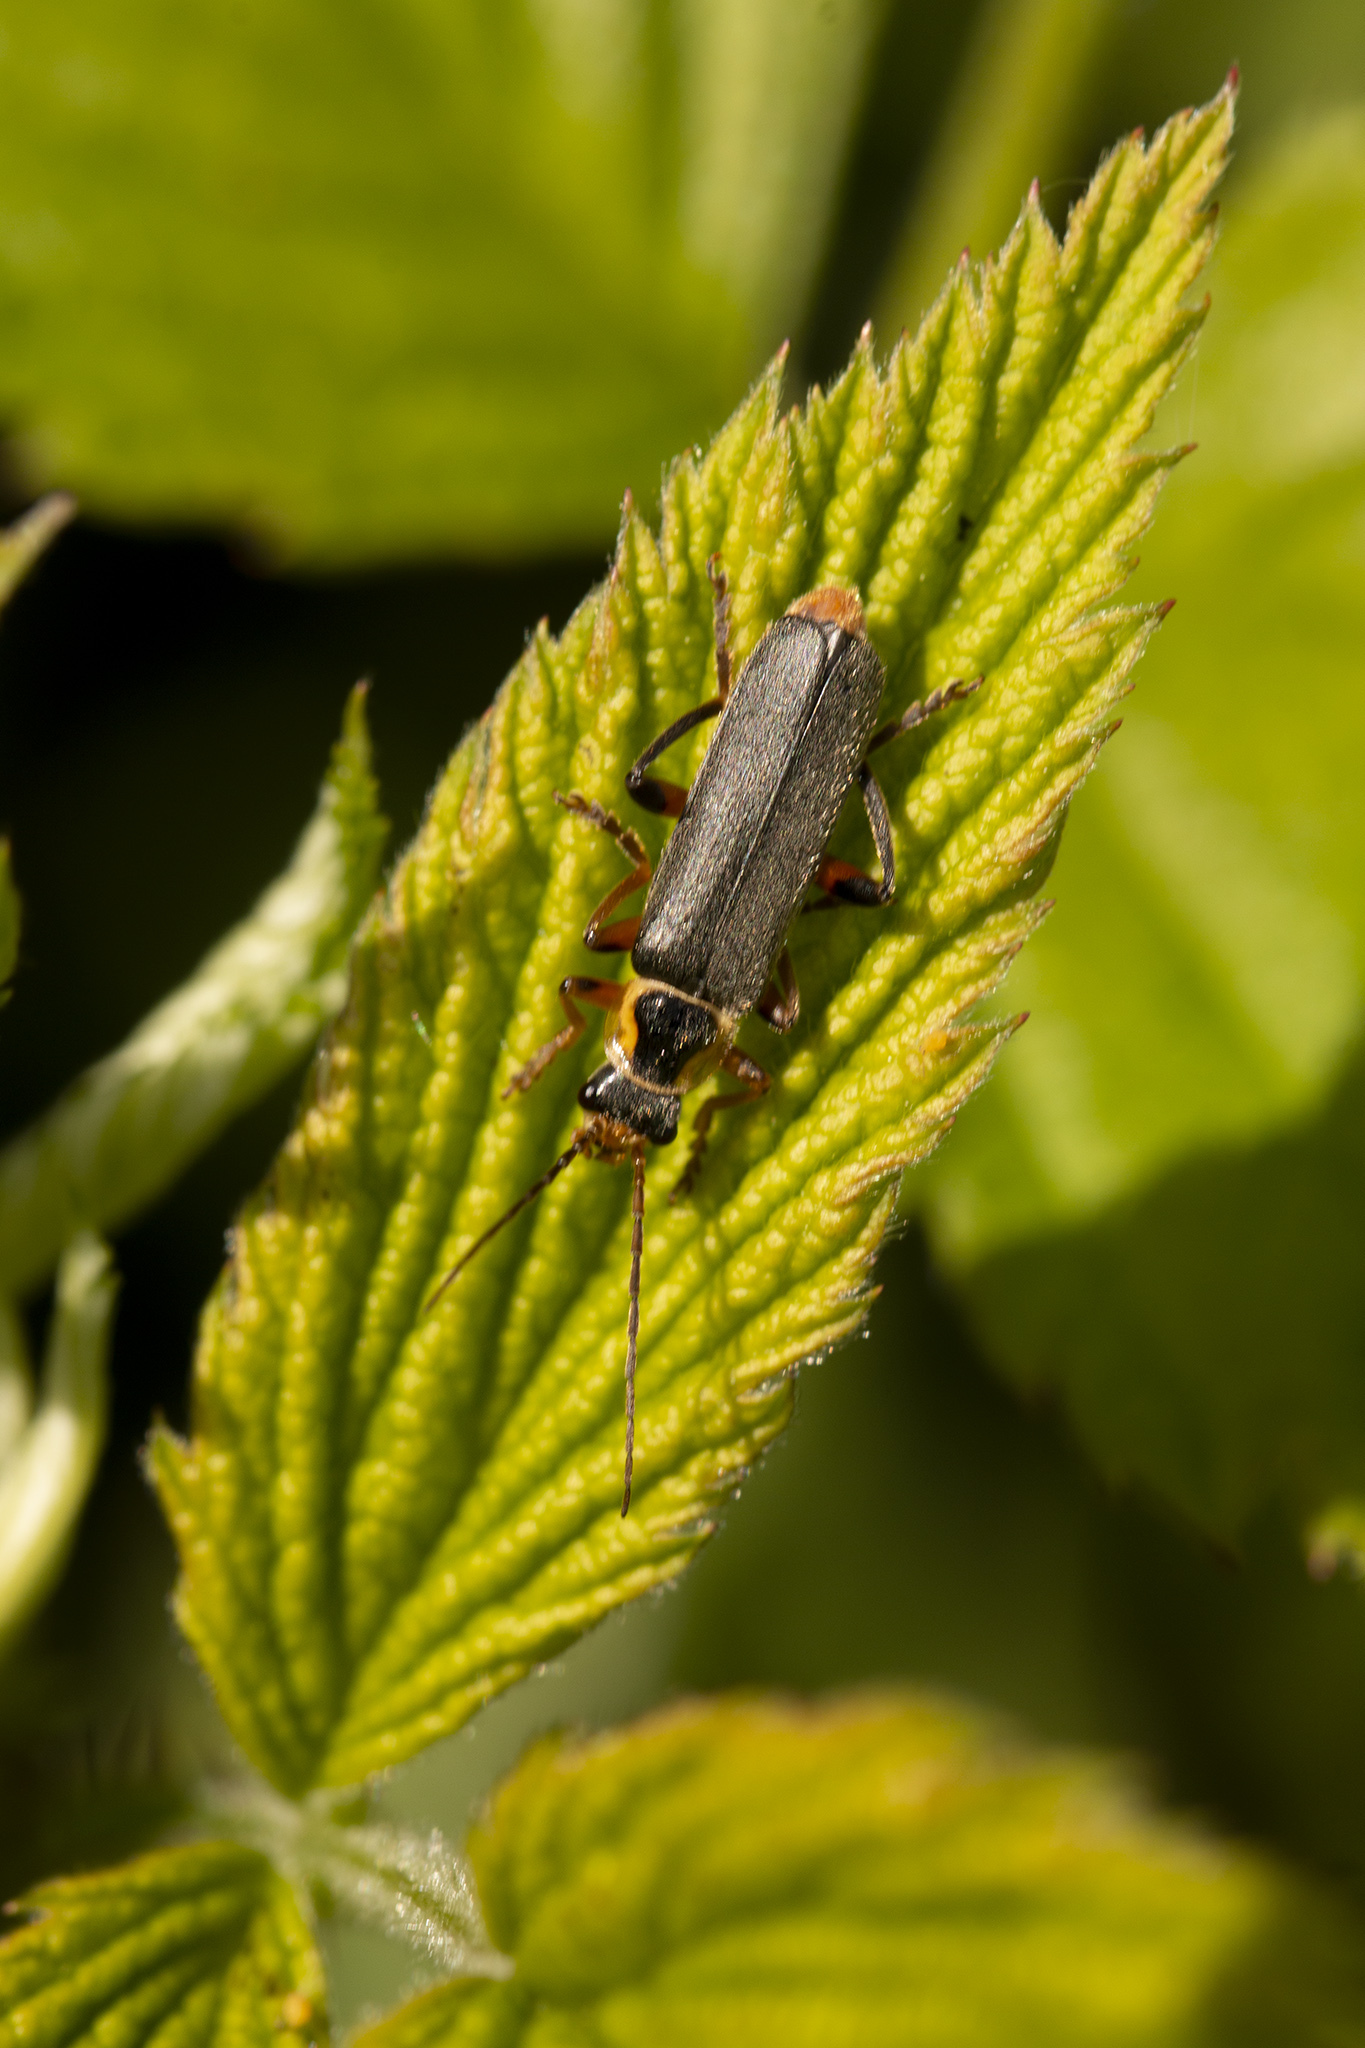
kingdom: Animalia
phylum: Arthropoda
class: Insecta
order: Coleoptera
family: Cantharidae
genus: Cantharis
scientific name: Cantharis nigricans
